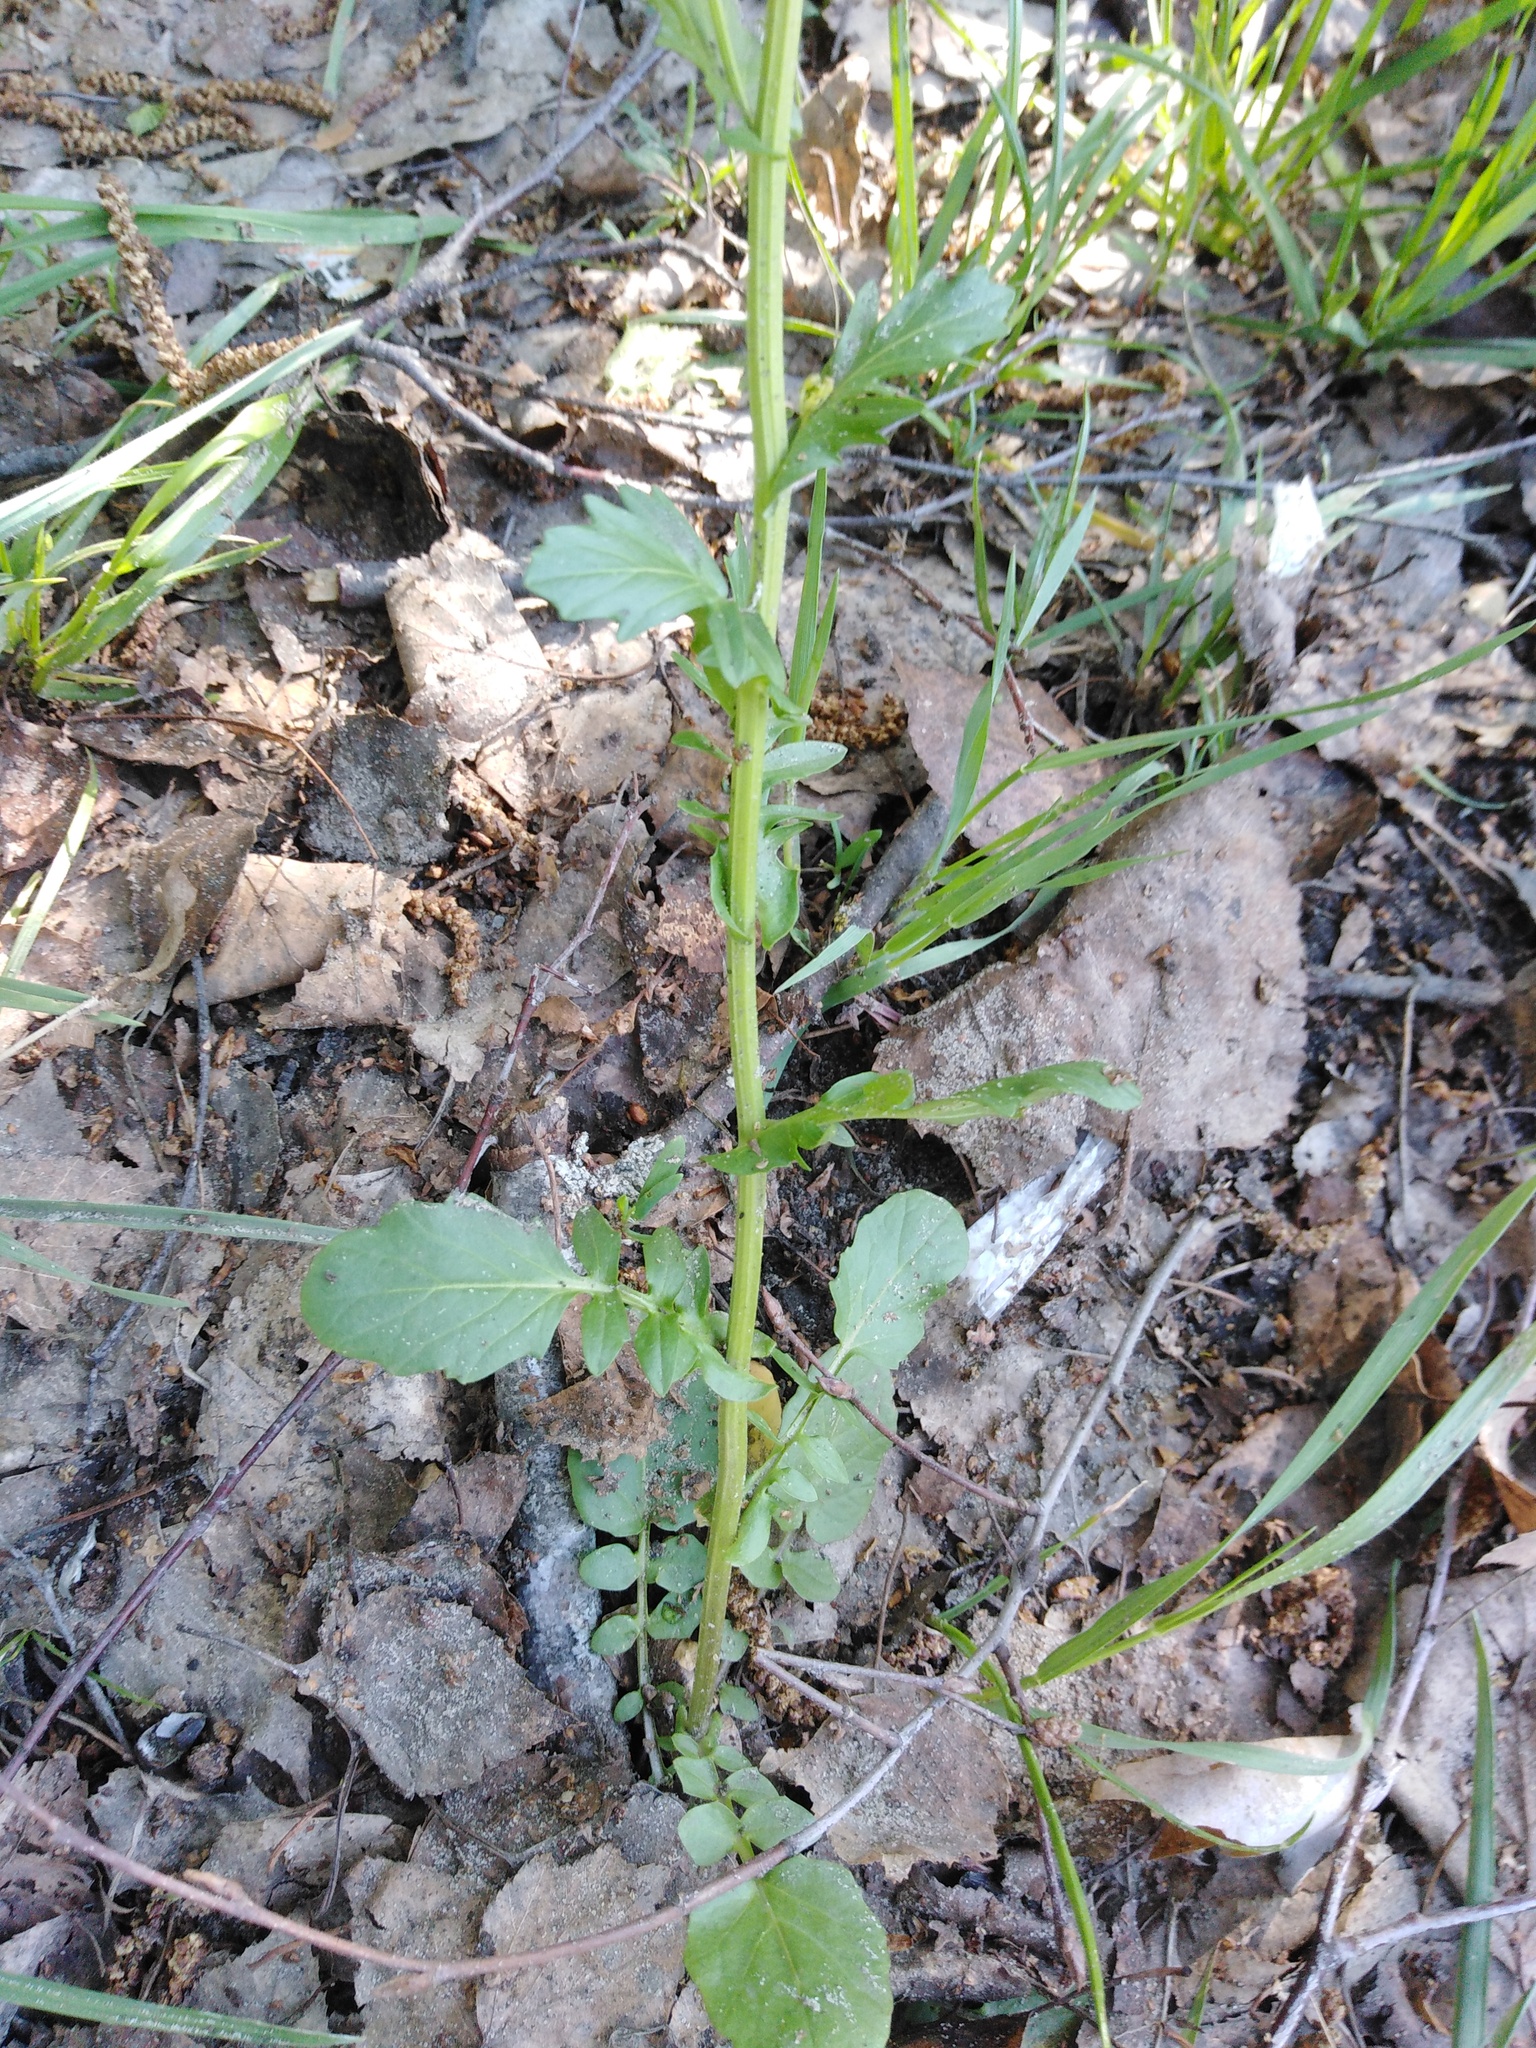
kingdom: Plantae
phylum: Tracheophyta
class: Magnoliopsida
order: Brassicales
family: Brassicaceae
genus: Barbarea
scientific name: Barbarea vulgaris
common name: Cressy-greens
